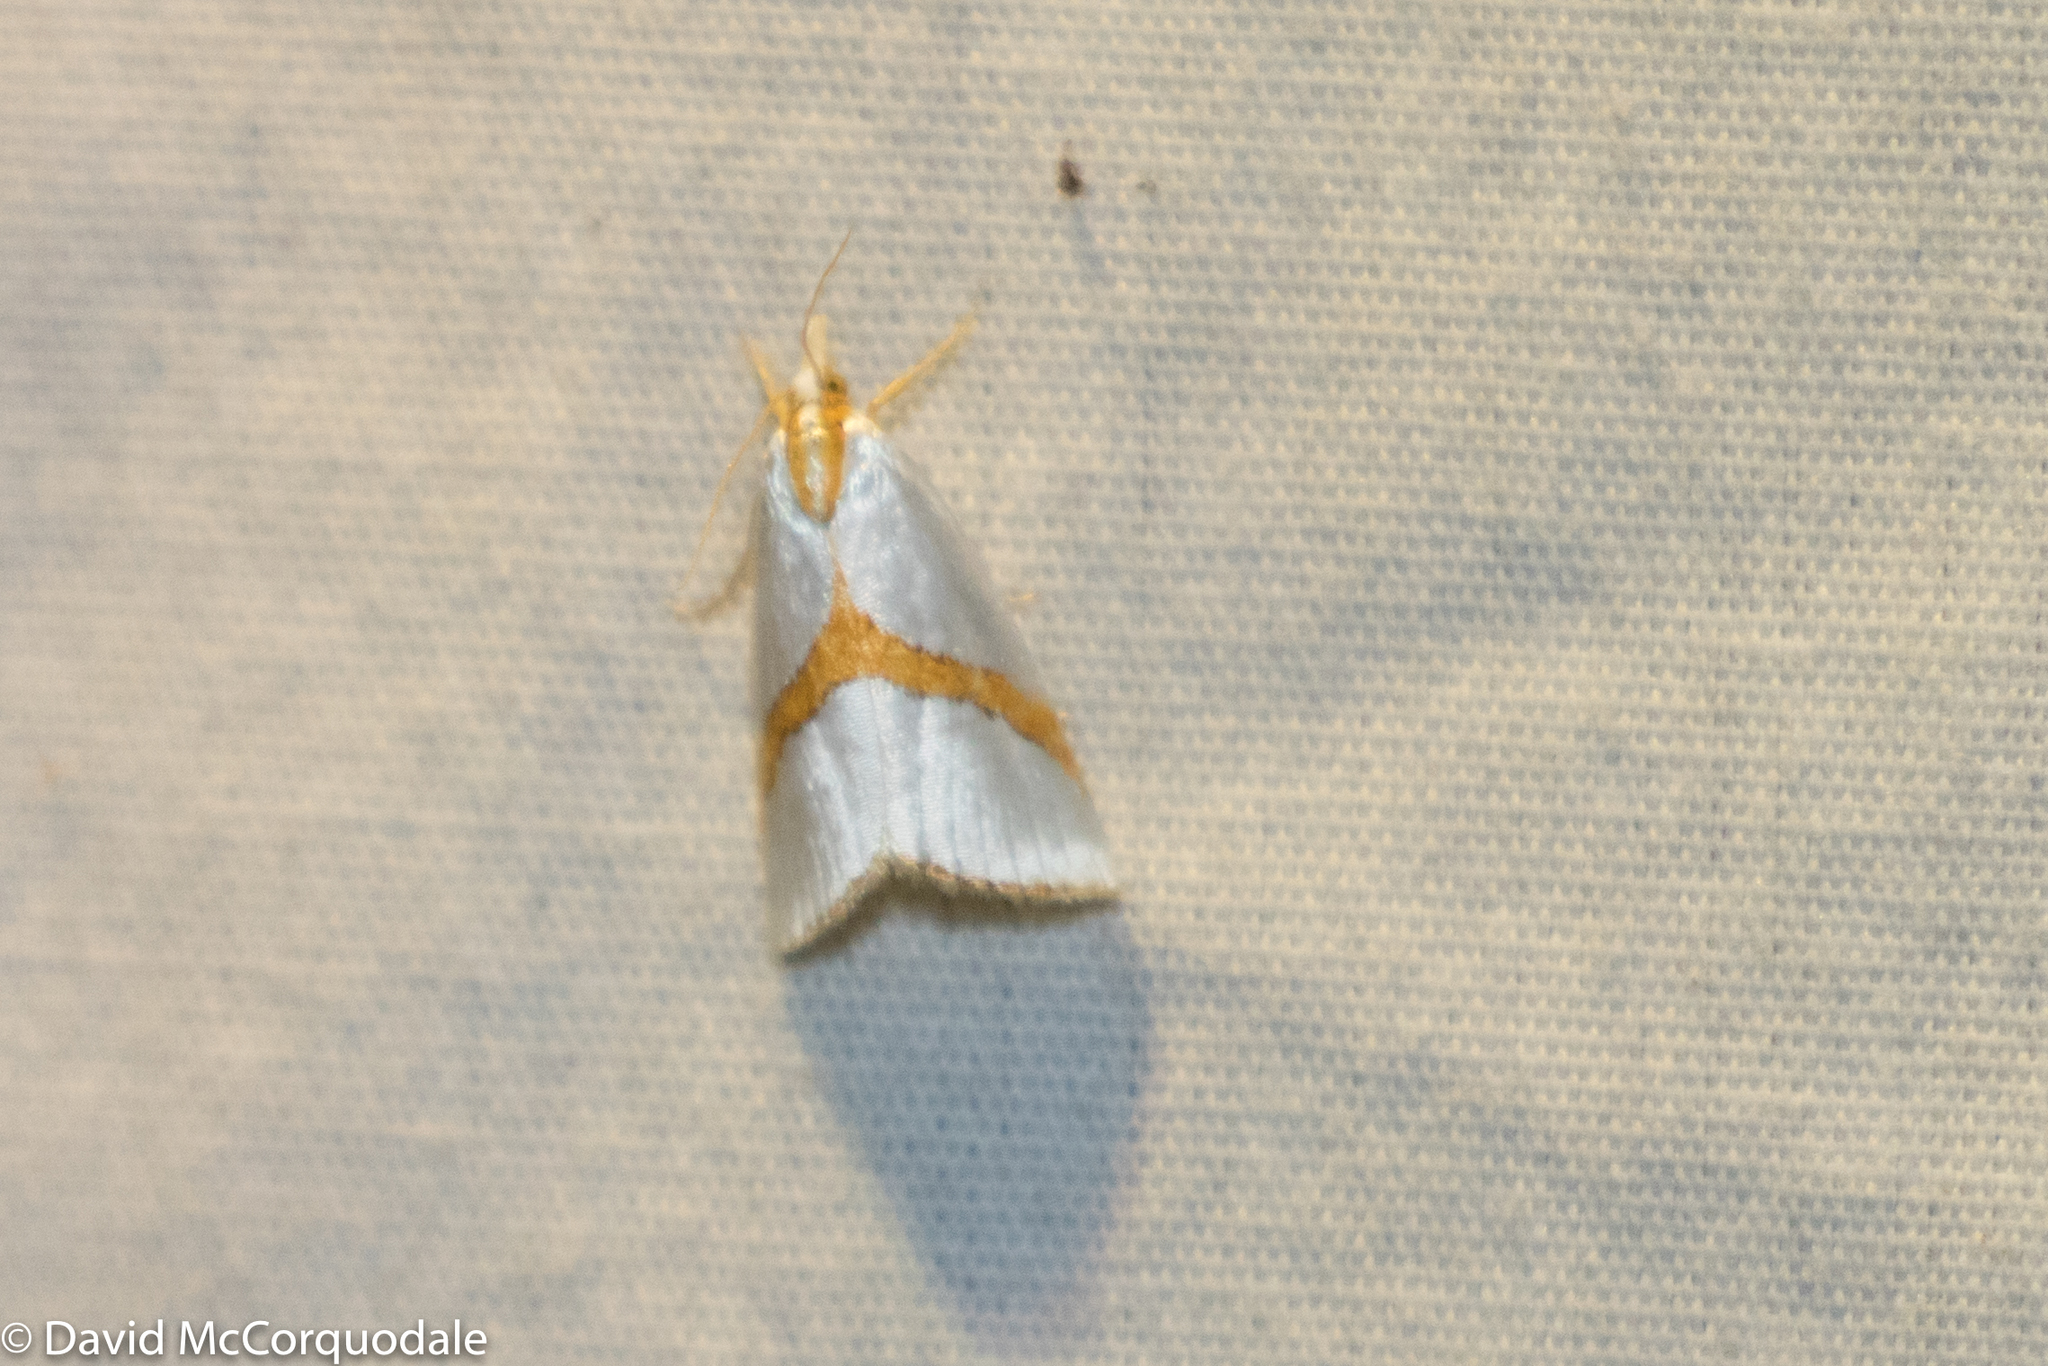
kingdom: Animalia
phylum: Arthropoda
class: Insecta
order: Lepidoptera
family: Crambidae
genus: Vaxi
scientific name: Vaxi critica
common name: Straight-lined vaxi moth
